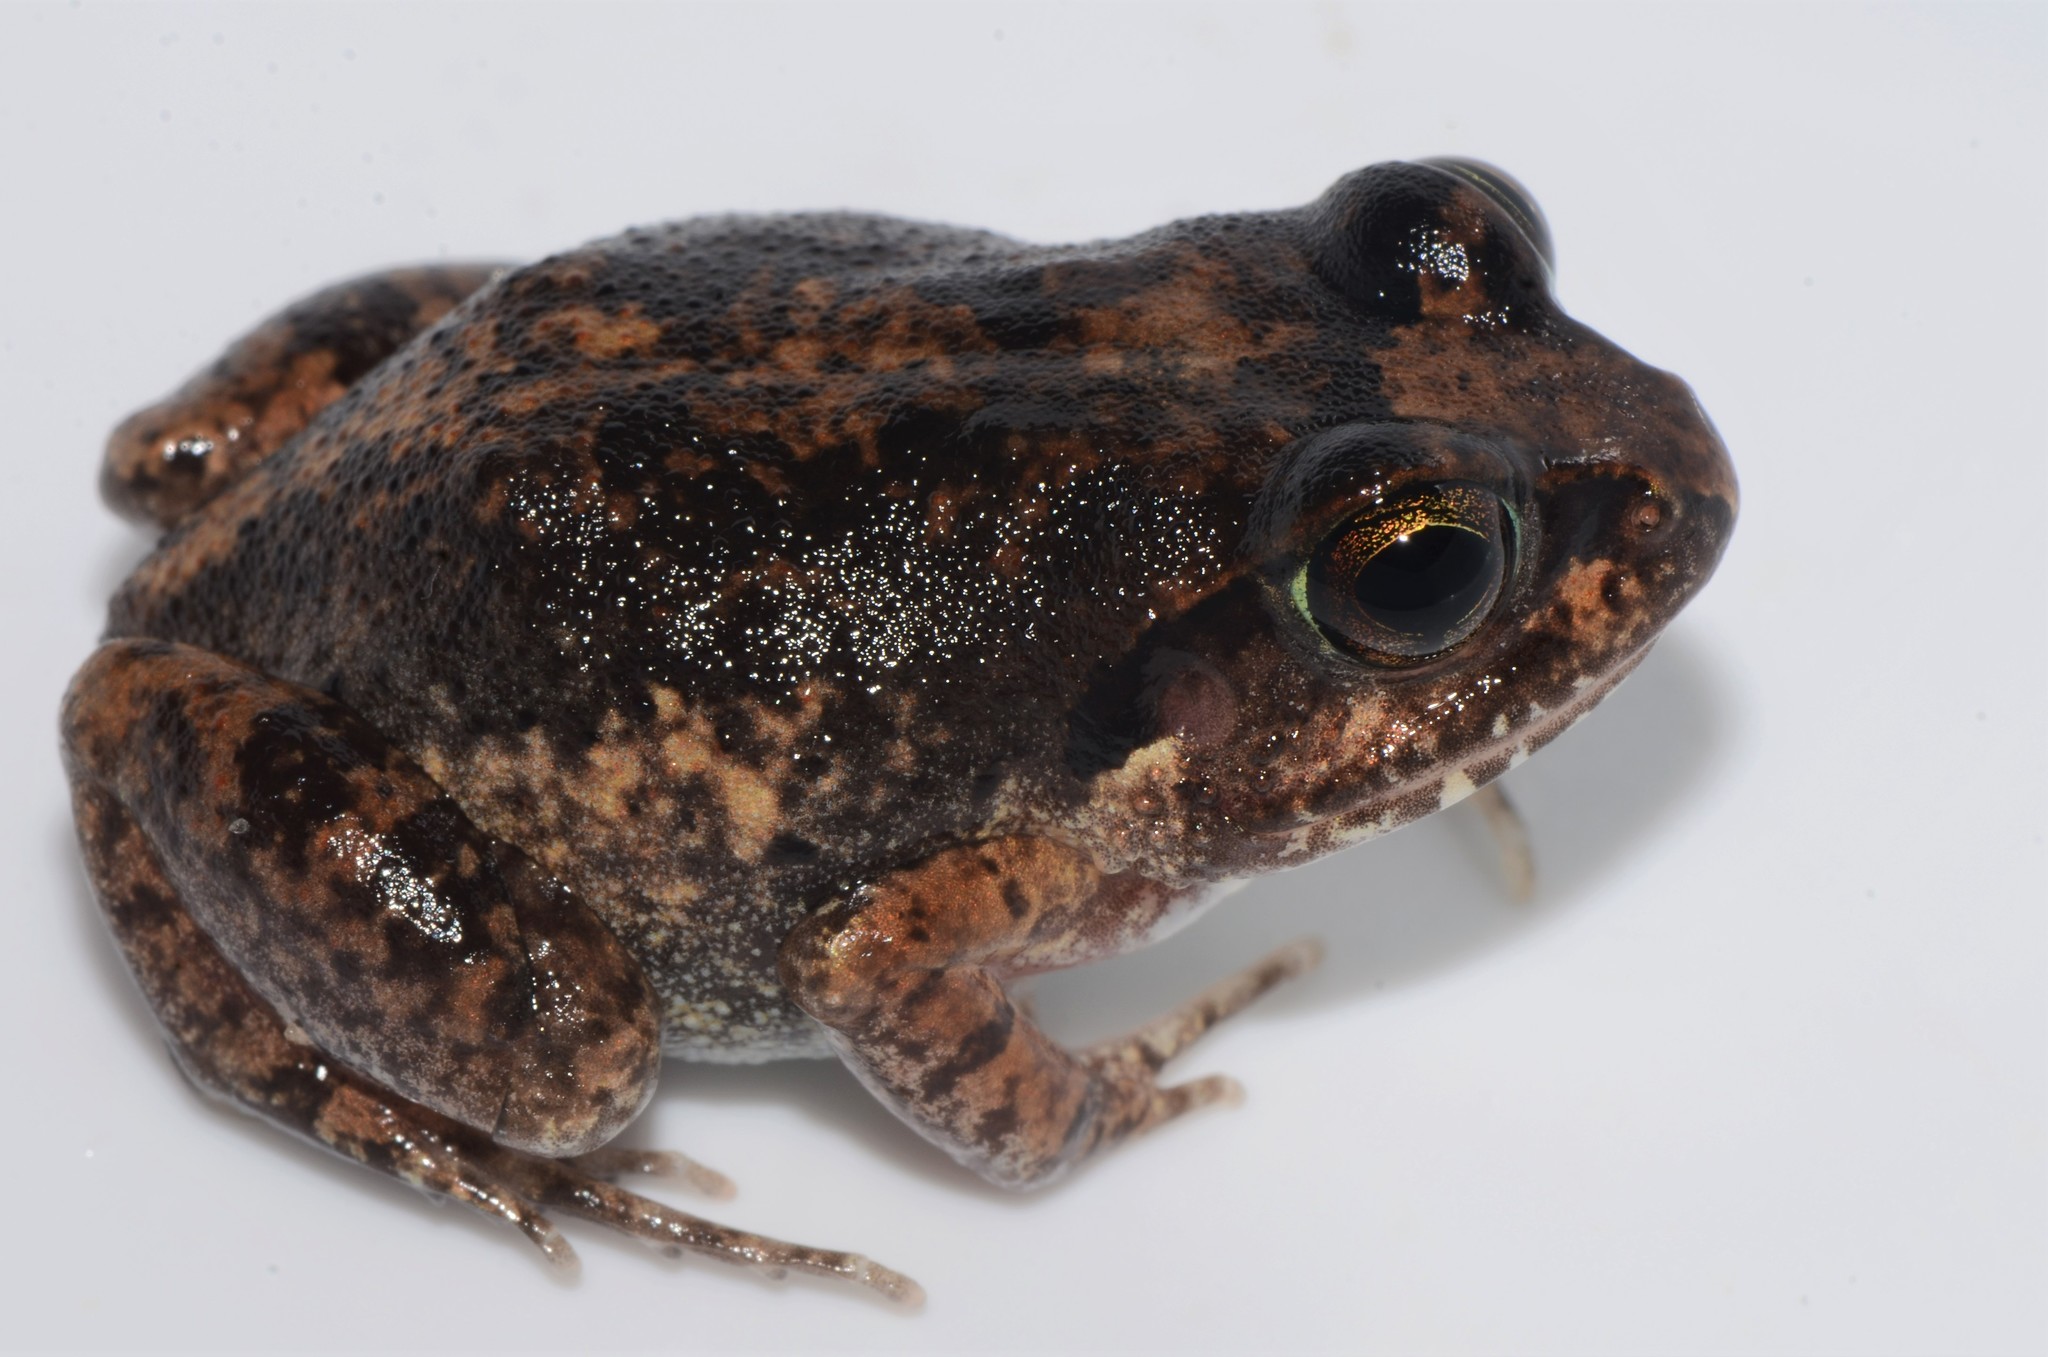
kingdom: Animalia
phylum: Chordata
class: Amphibia
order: Anura
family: Arthroleptidae
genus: Arthroleptis
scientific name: Arthroleptis stenodactylus
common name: Dune squeaker
